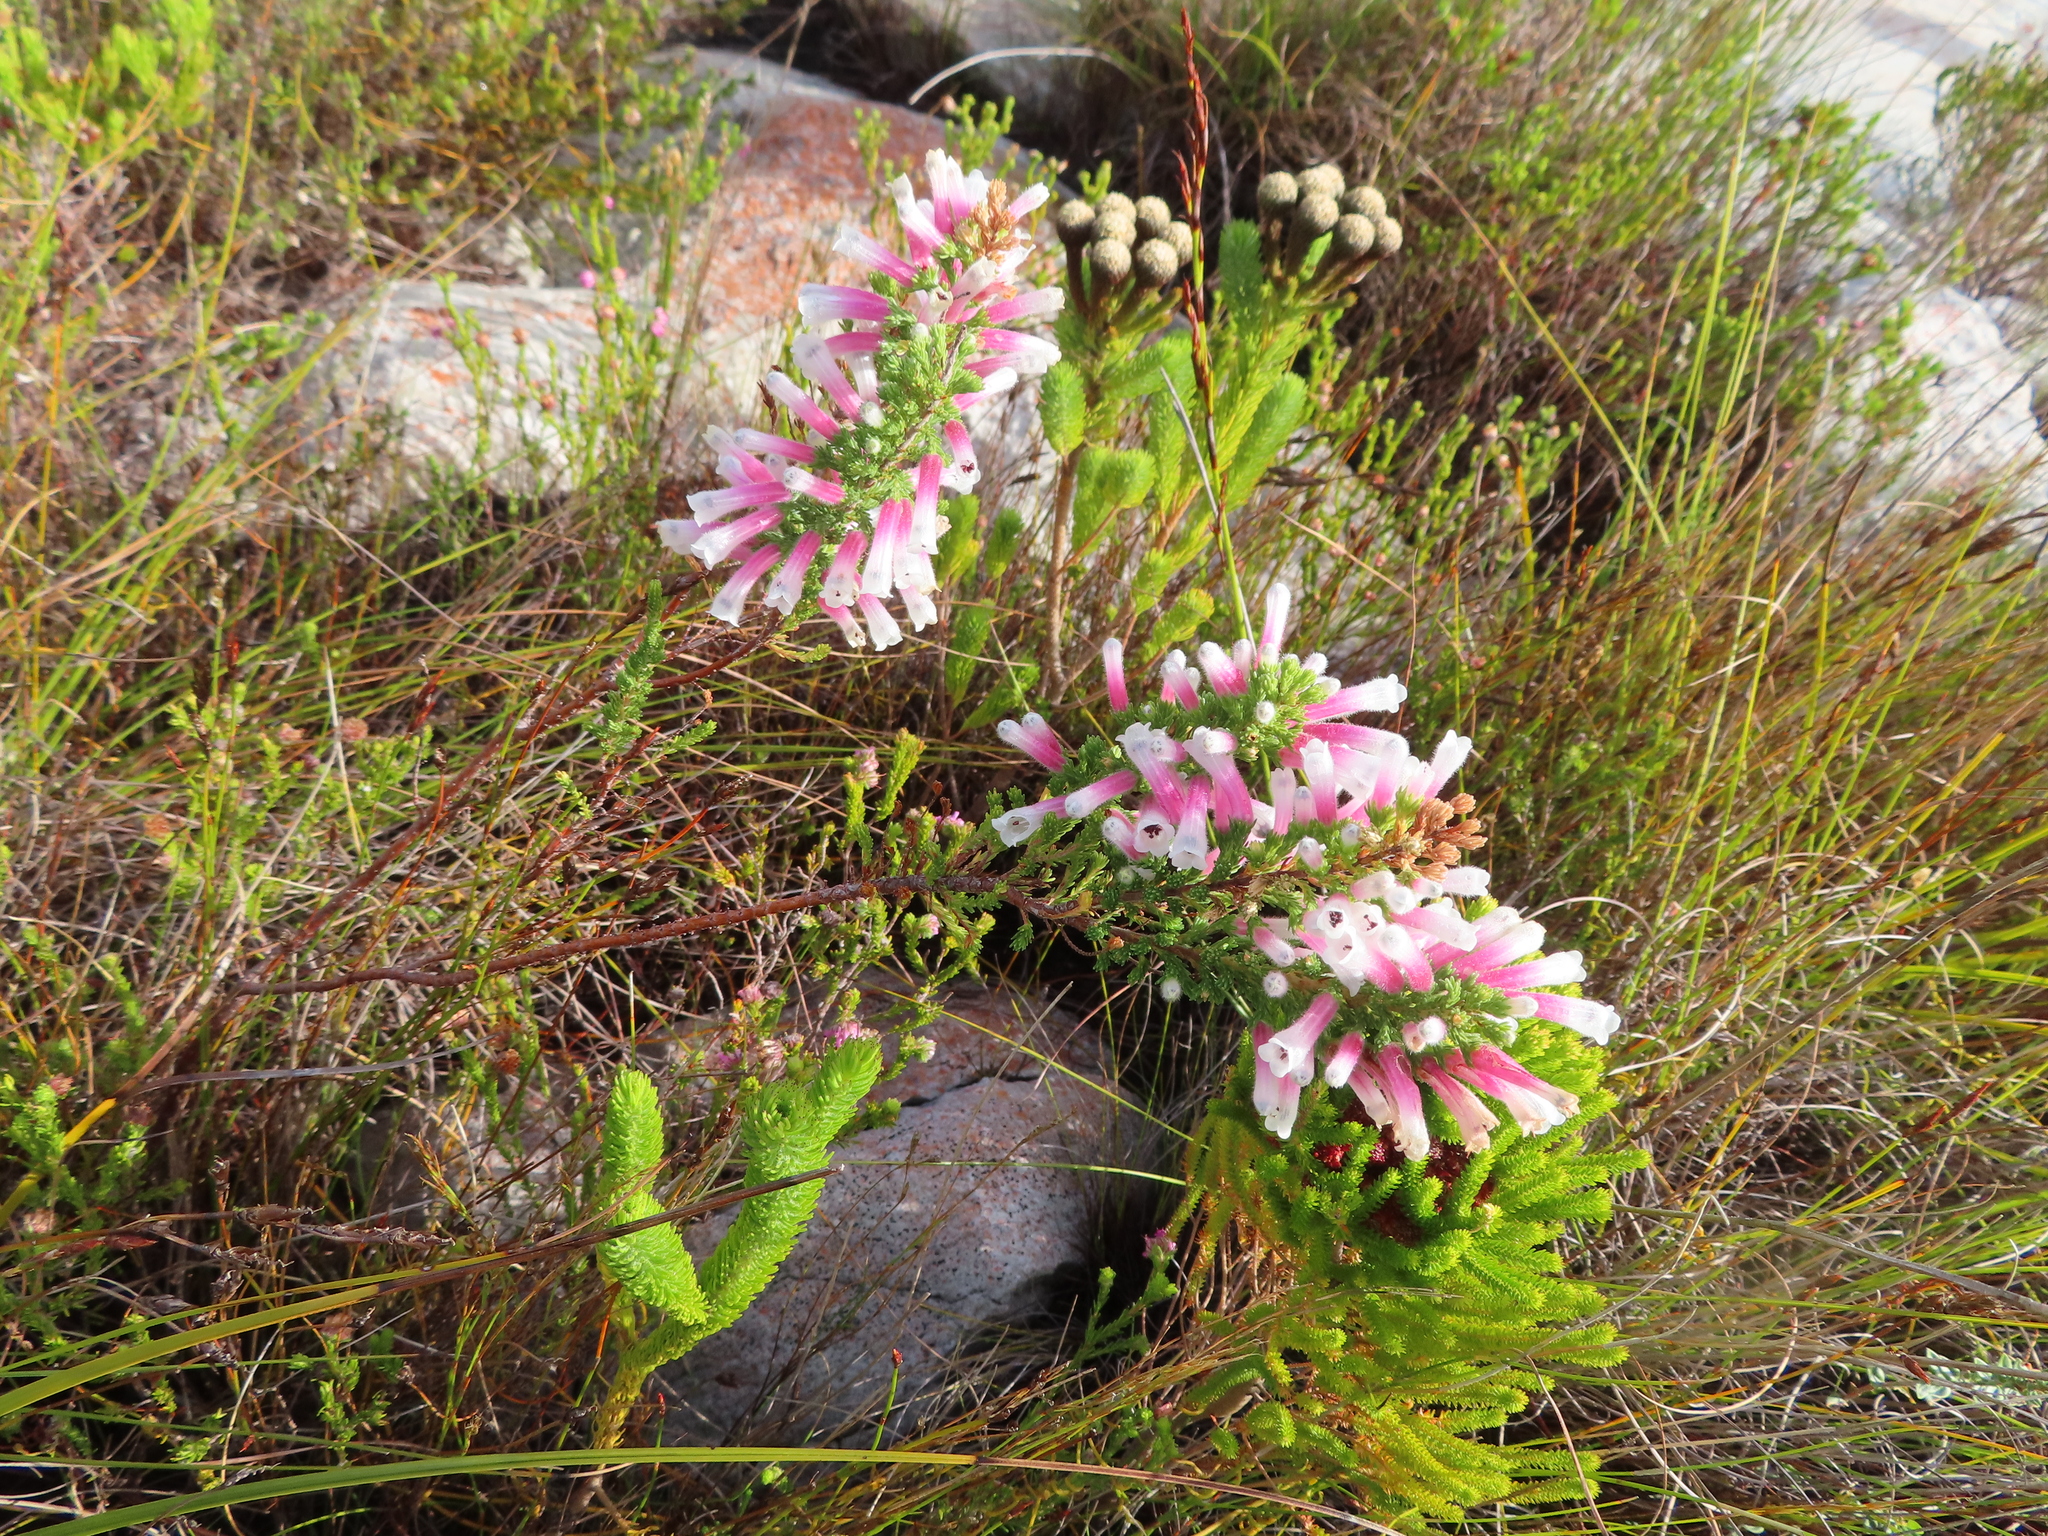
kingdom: Plantae
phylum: Tracheophyta
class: Magnoliopsida
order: Ericales
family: Ericaceae
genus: Erica
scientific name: Erica perspicua
